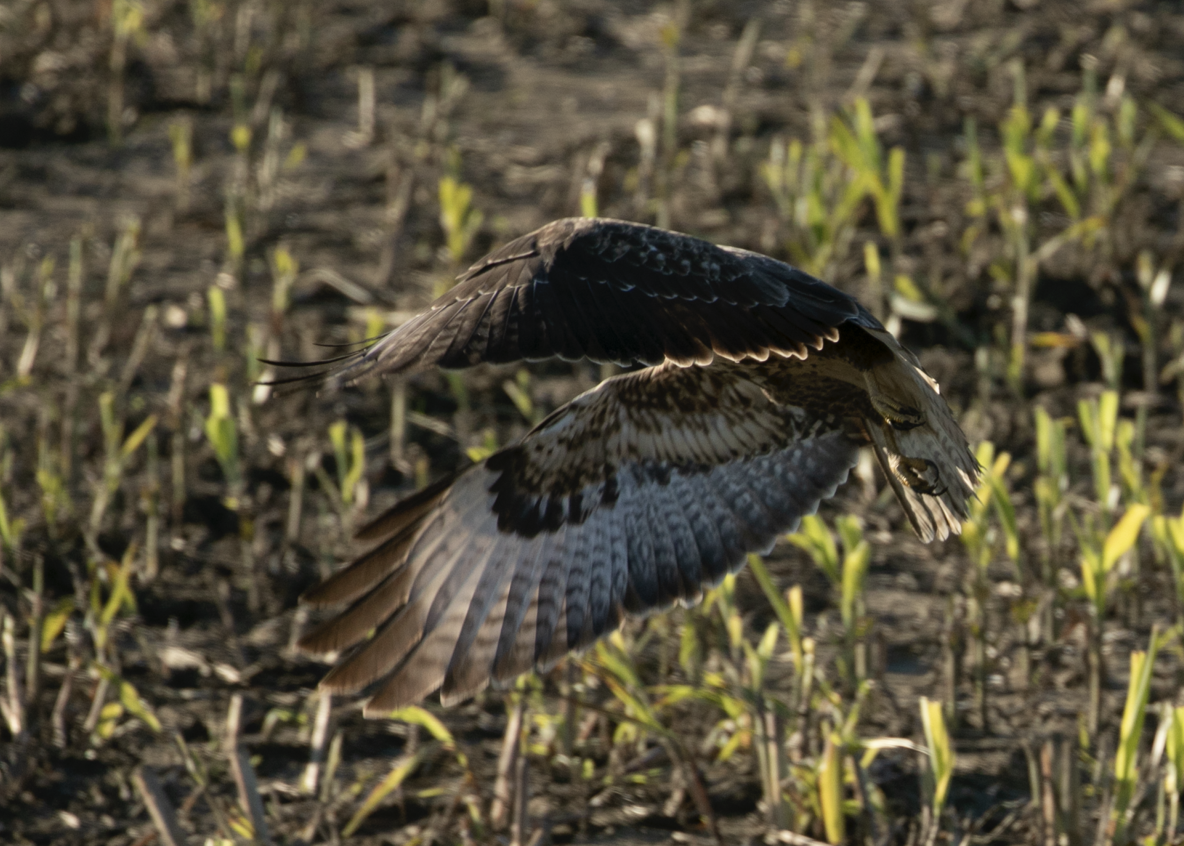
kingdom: Animalia
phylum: Chordata
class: Aves
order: Accipitriformes
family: Accipitridae
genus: Buteo
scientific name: Buteo buteo
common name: Common buzzard
